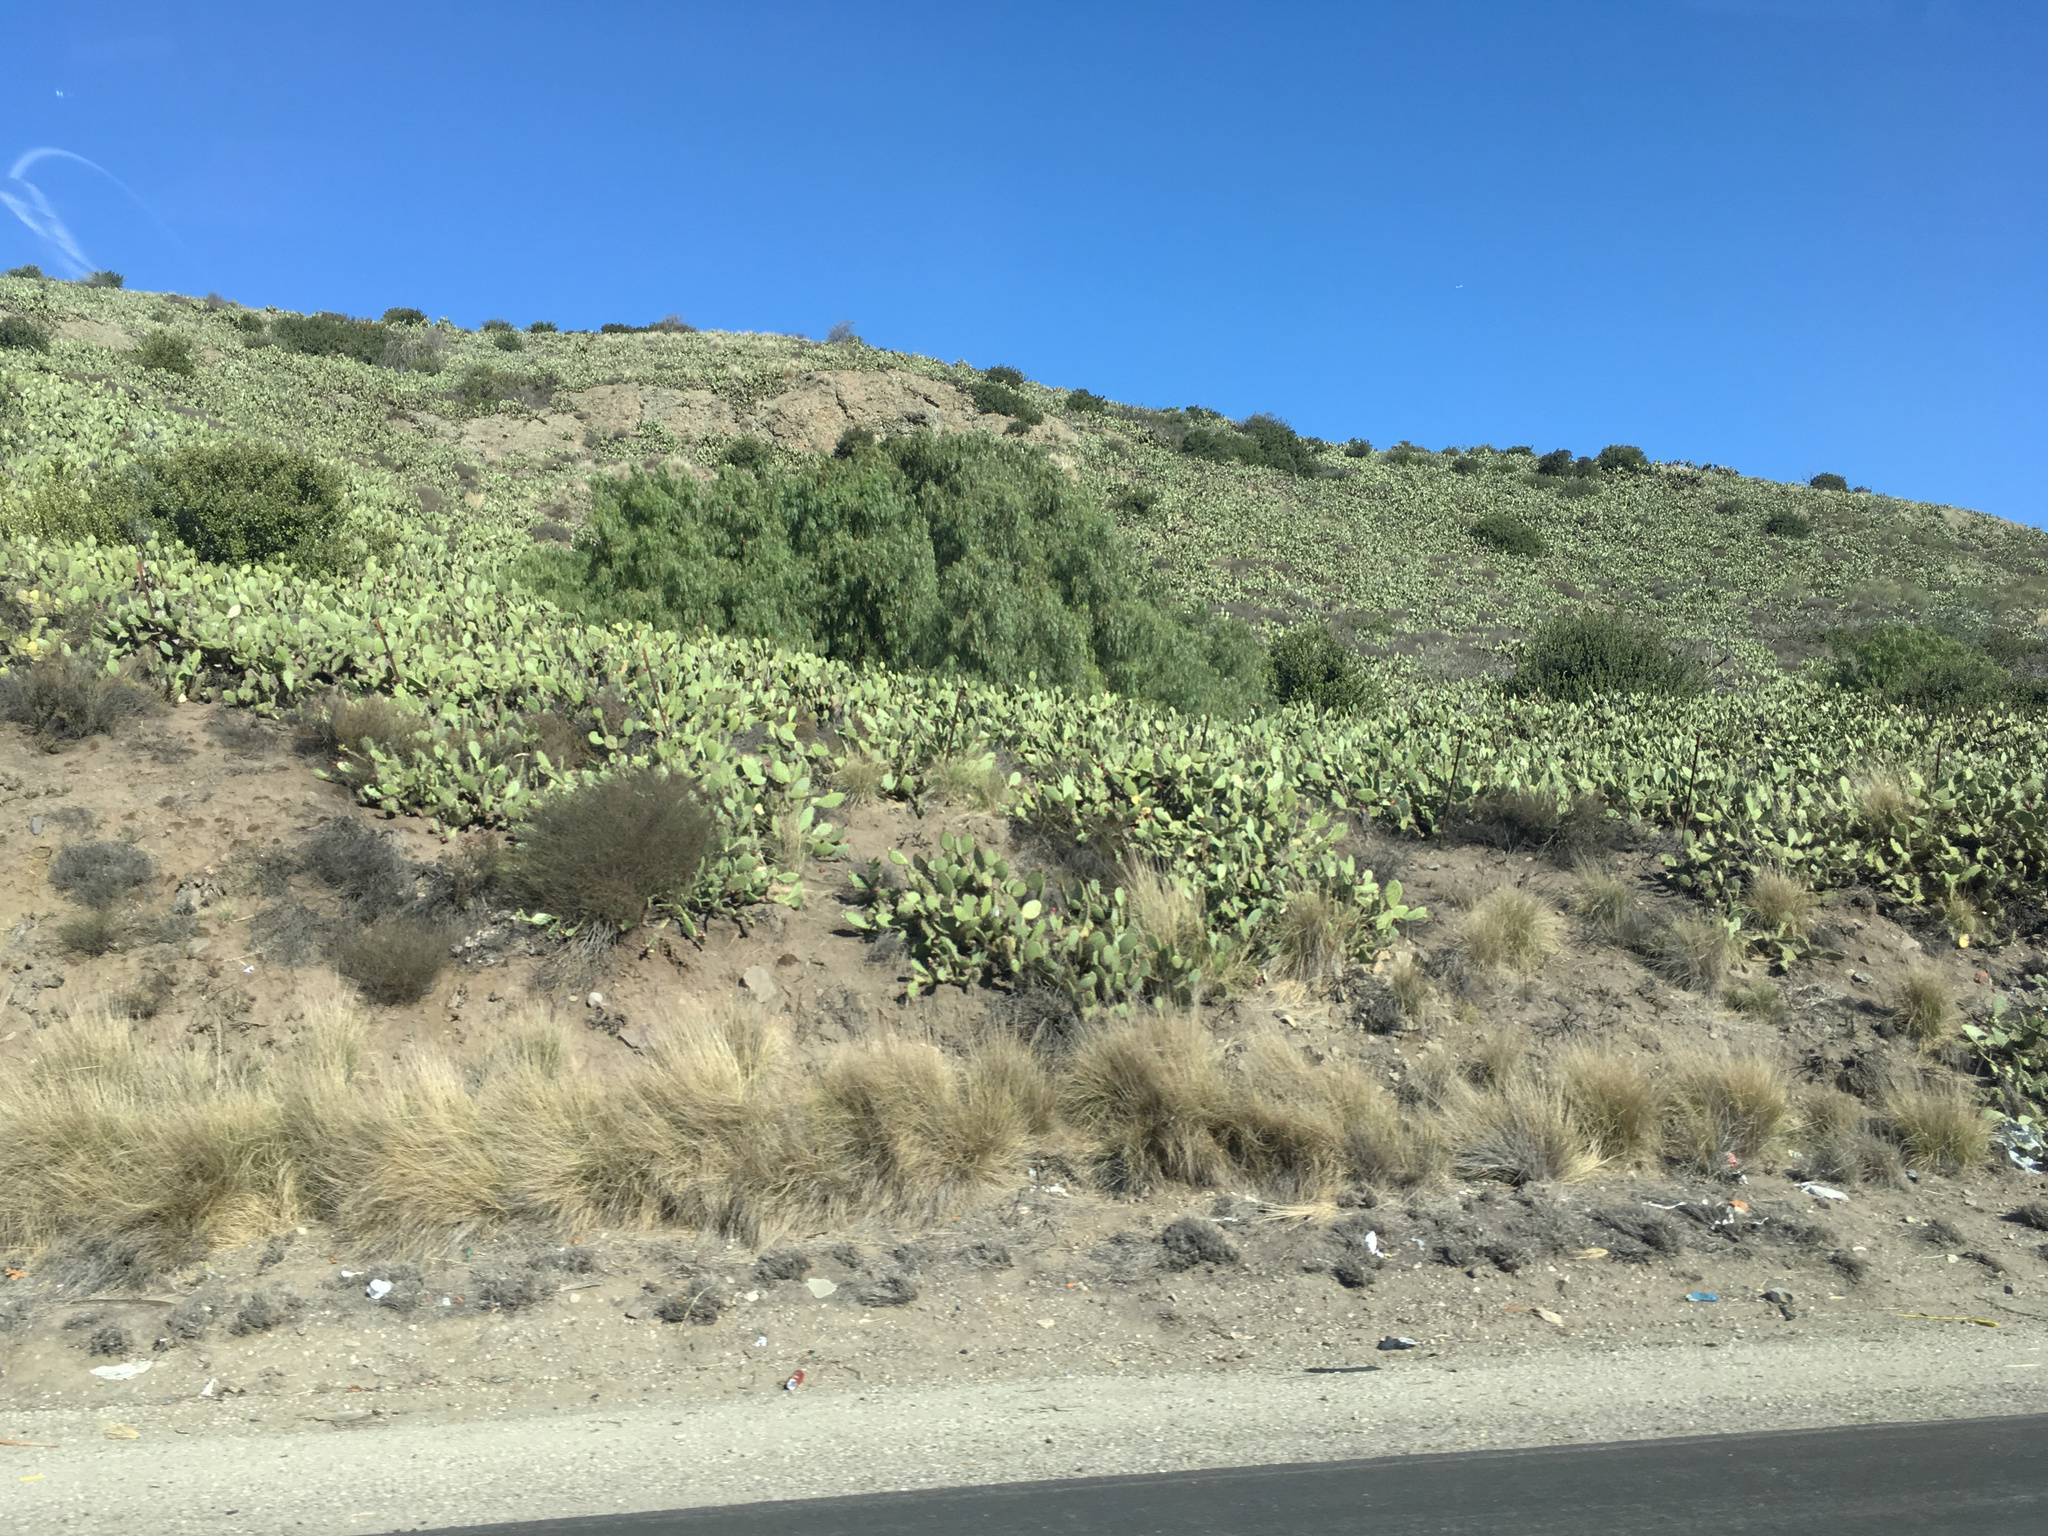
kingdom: Plantae
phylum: Tracheophyta
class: Magnoliopsida
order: Caryophyllales
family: Cactaceae
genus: Opuntia
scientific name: Opuntia littoralis
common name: Coastal prickly-pear
